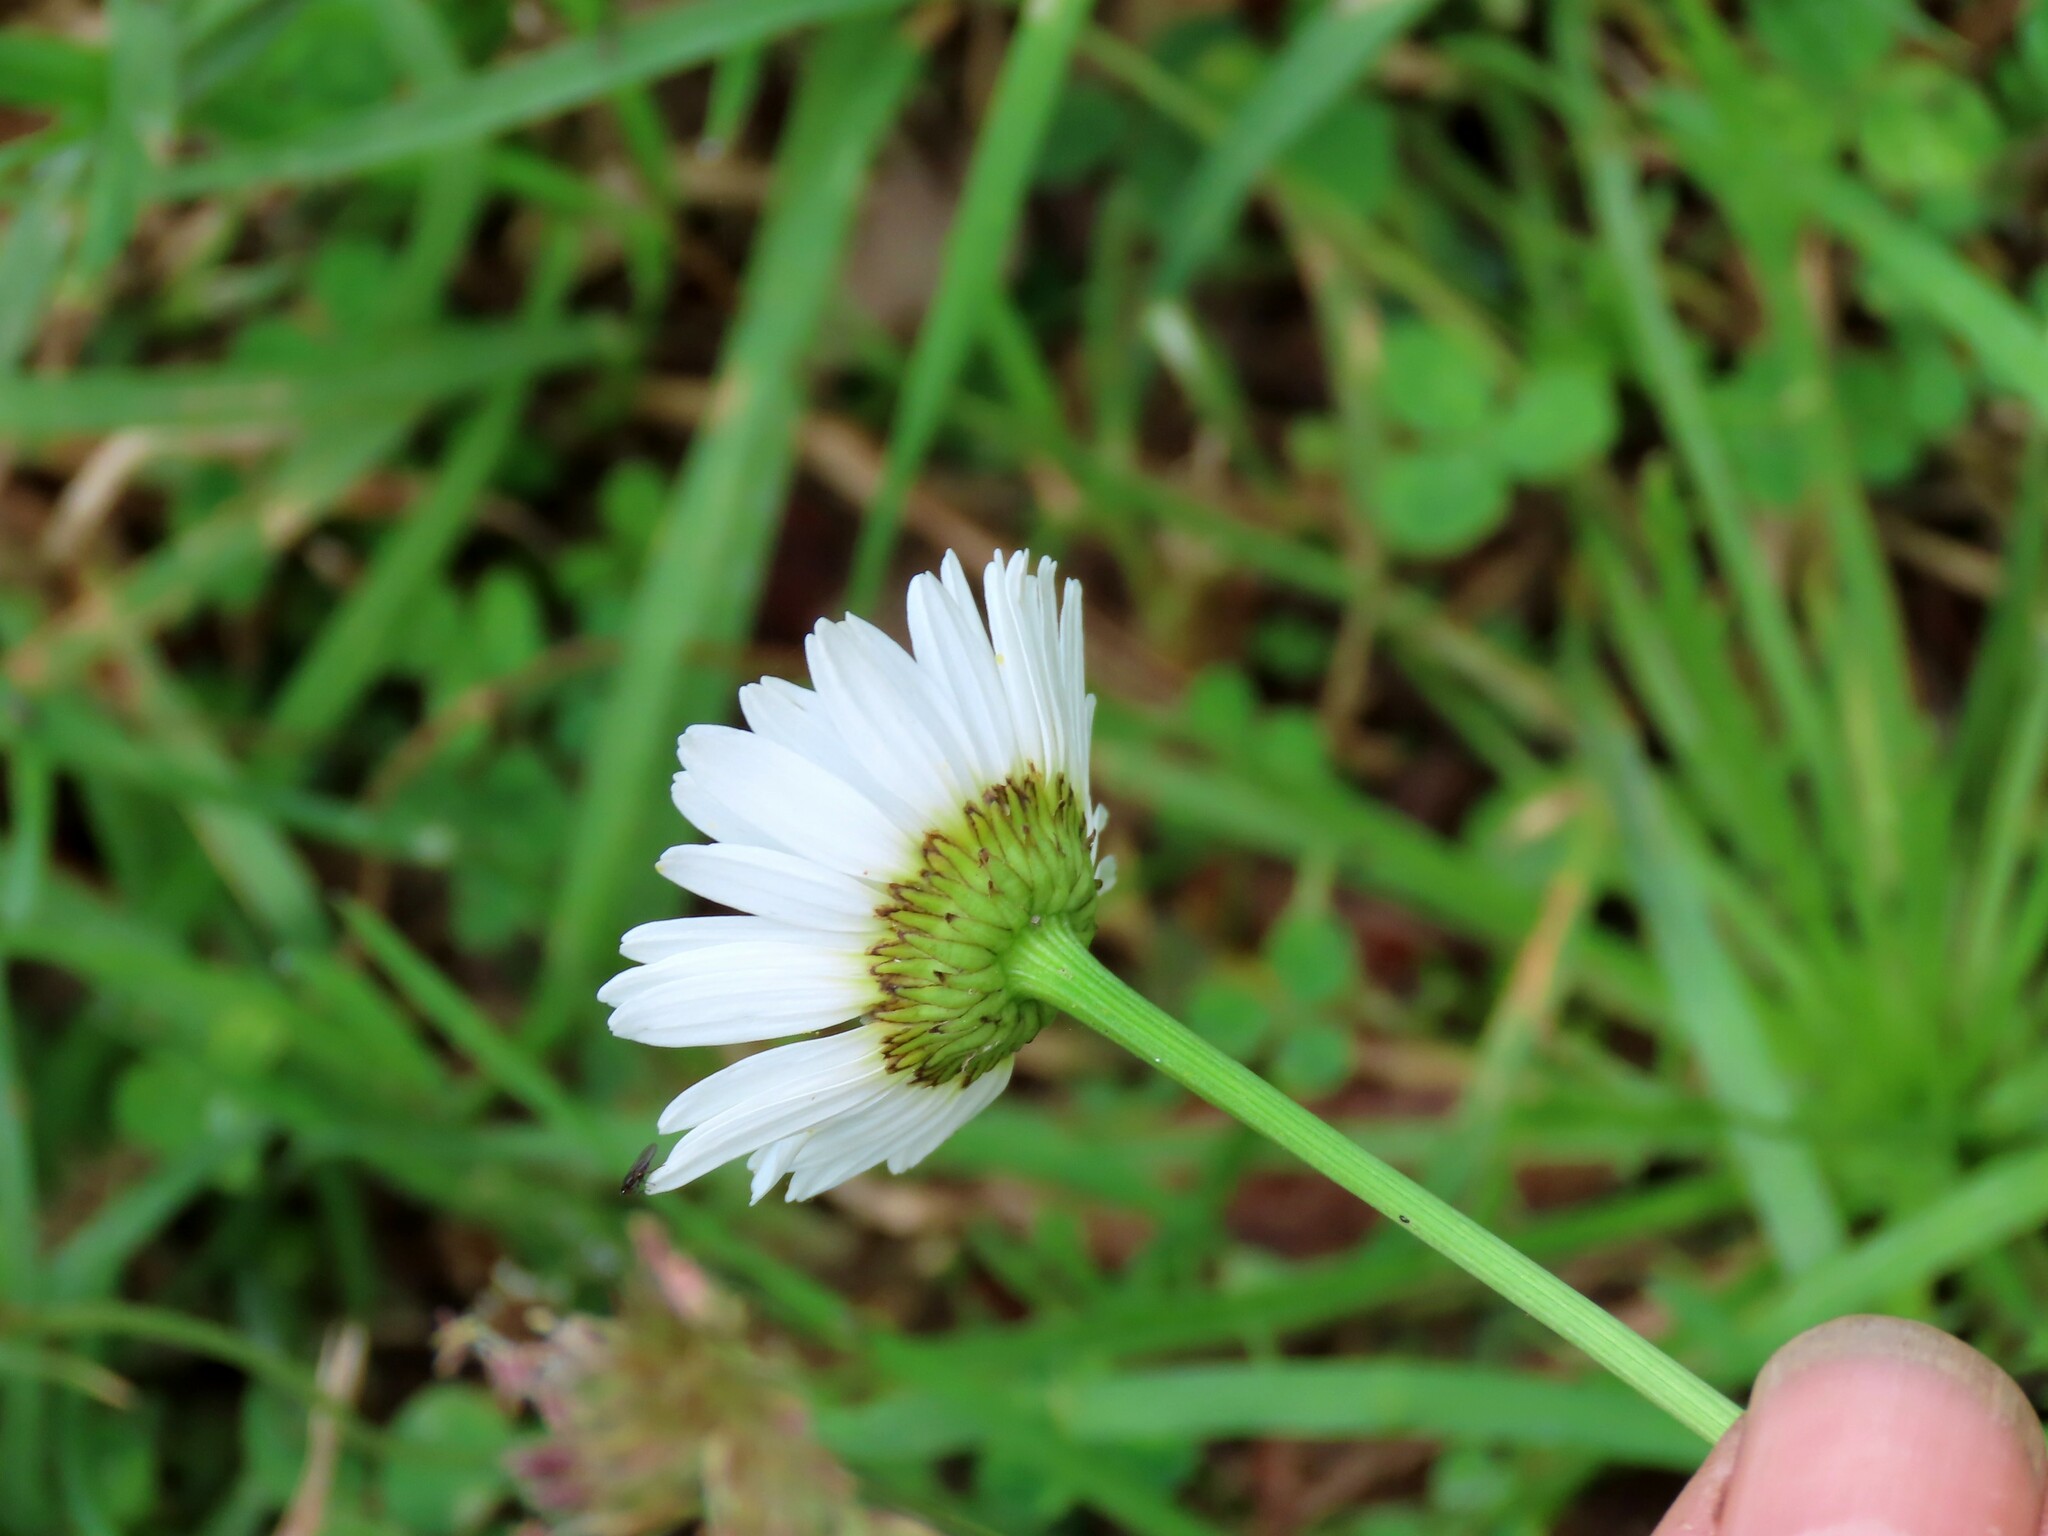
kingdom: Plantae
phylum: Tracheophyta
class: Magnoliopsida
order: Asterales
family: Asteraceae
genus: Leucanthemum
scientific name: Leucanthemum vulgare
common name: Oxeye daisy
